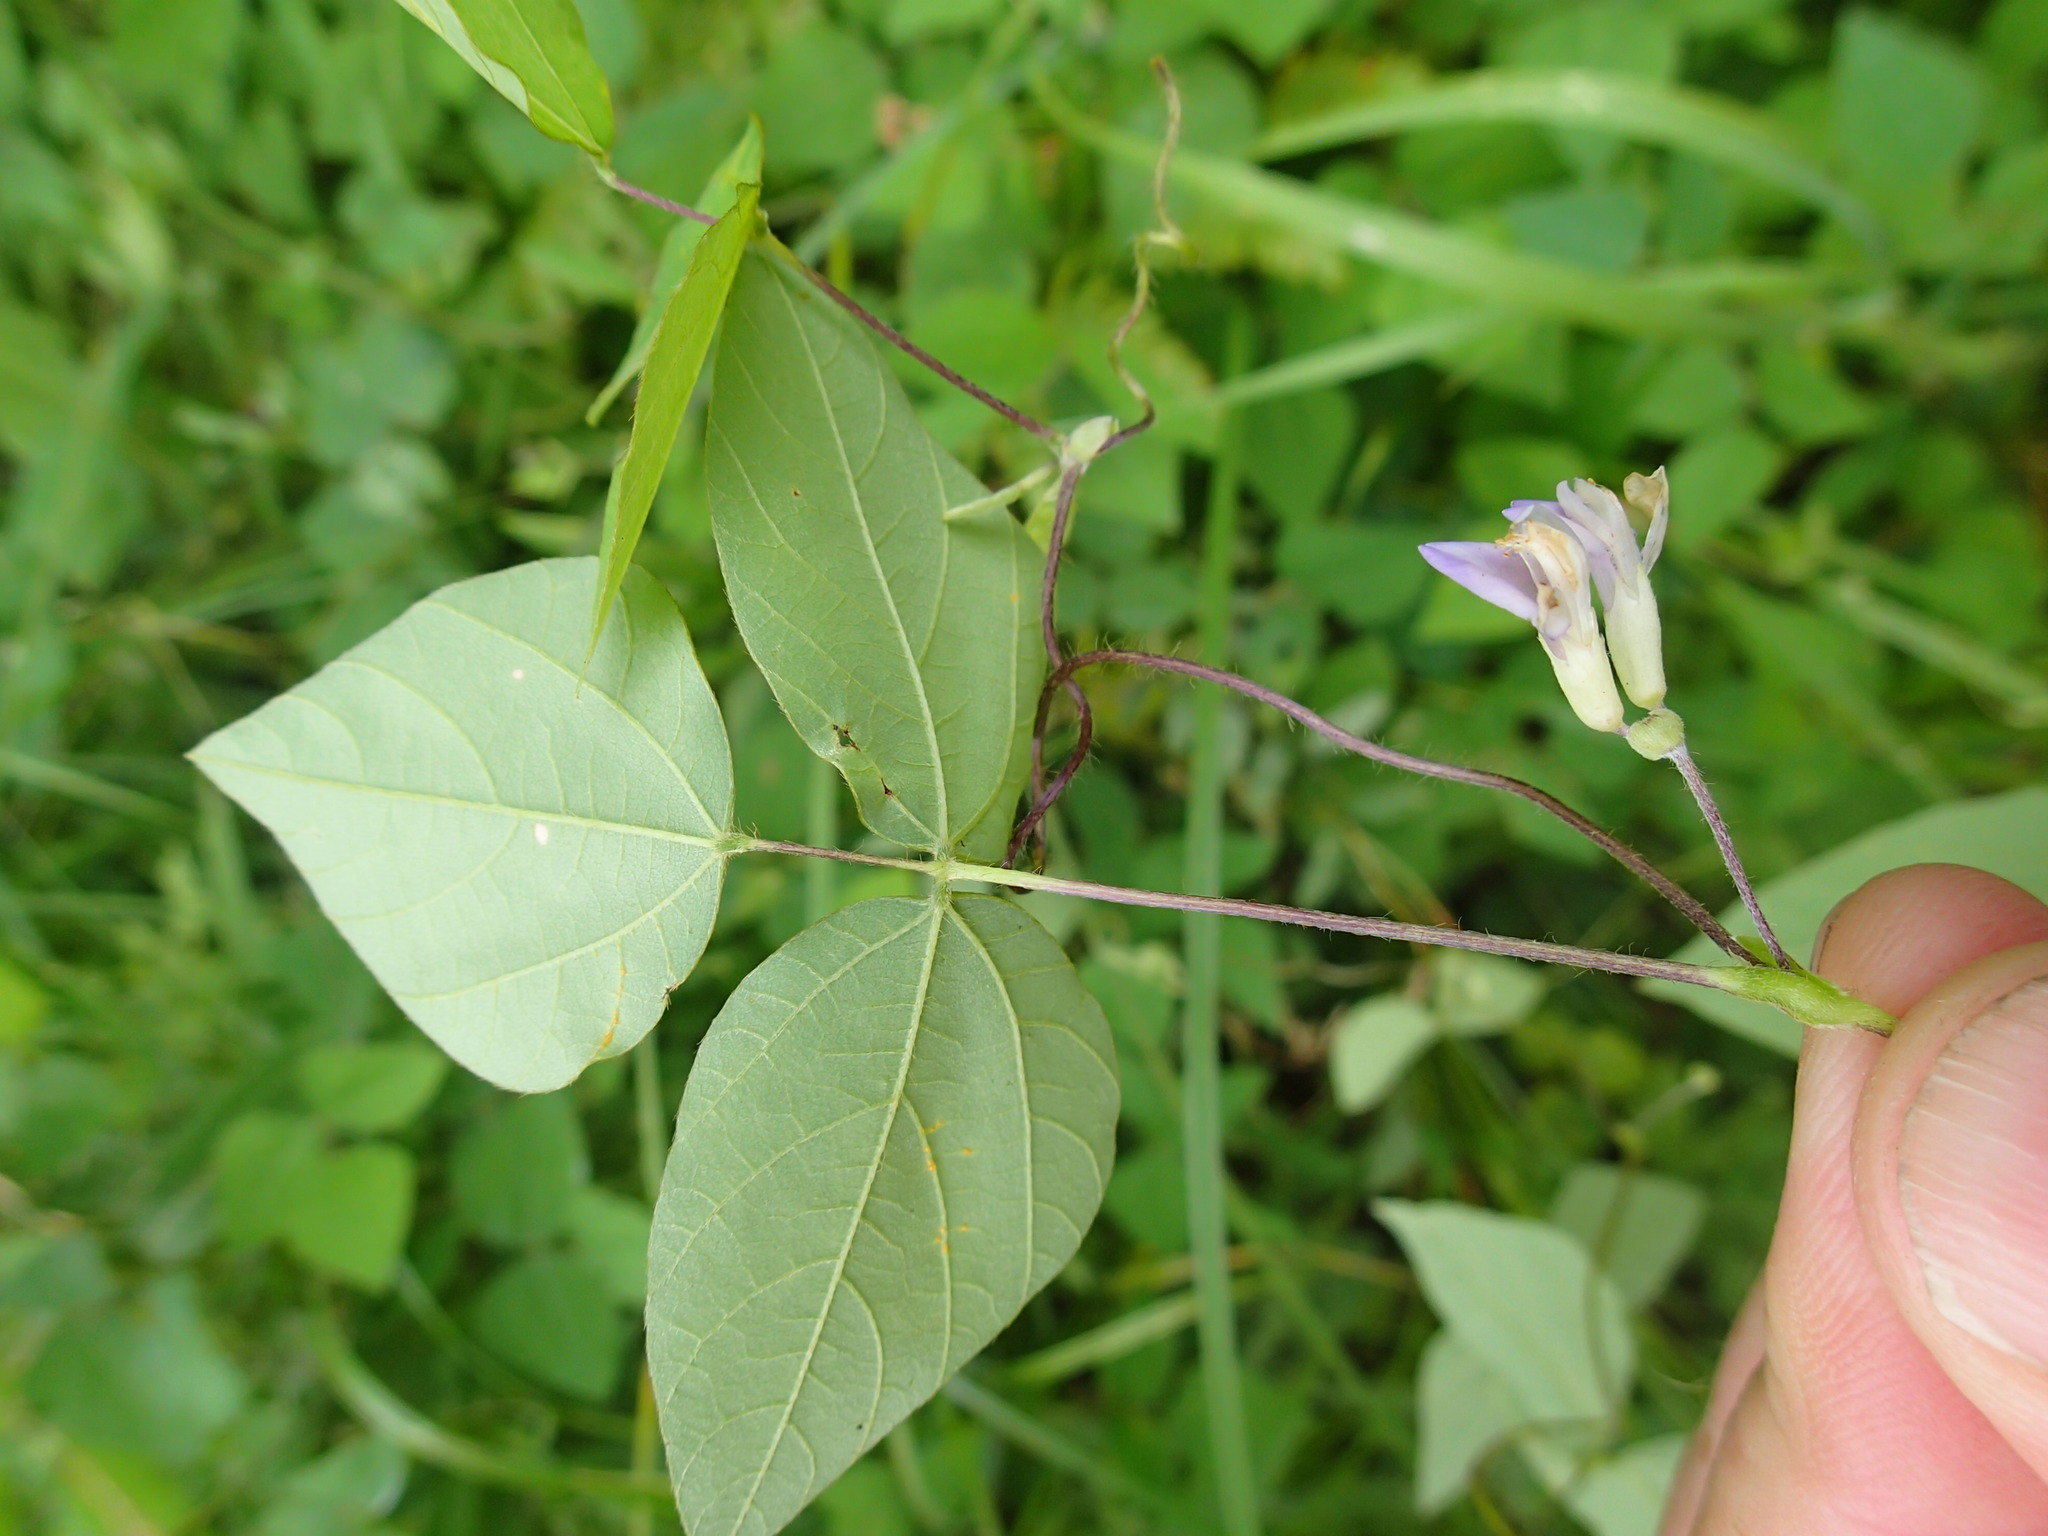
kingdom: Plantae
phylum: Tracheophyta
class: Magnoliopsida
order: Fabales
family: Fabaceae
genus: Amphicarpaea
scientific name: Amphicarpaea bracteata
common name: American hog peanut
